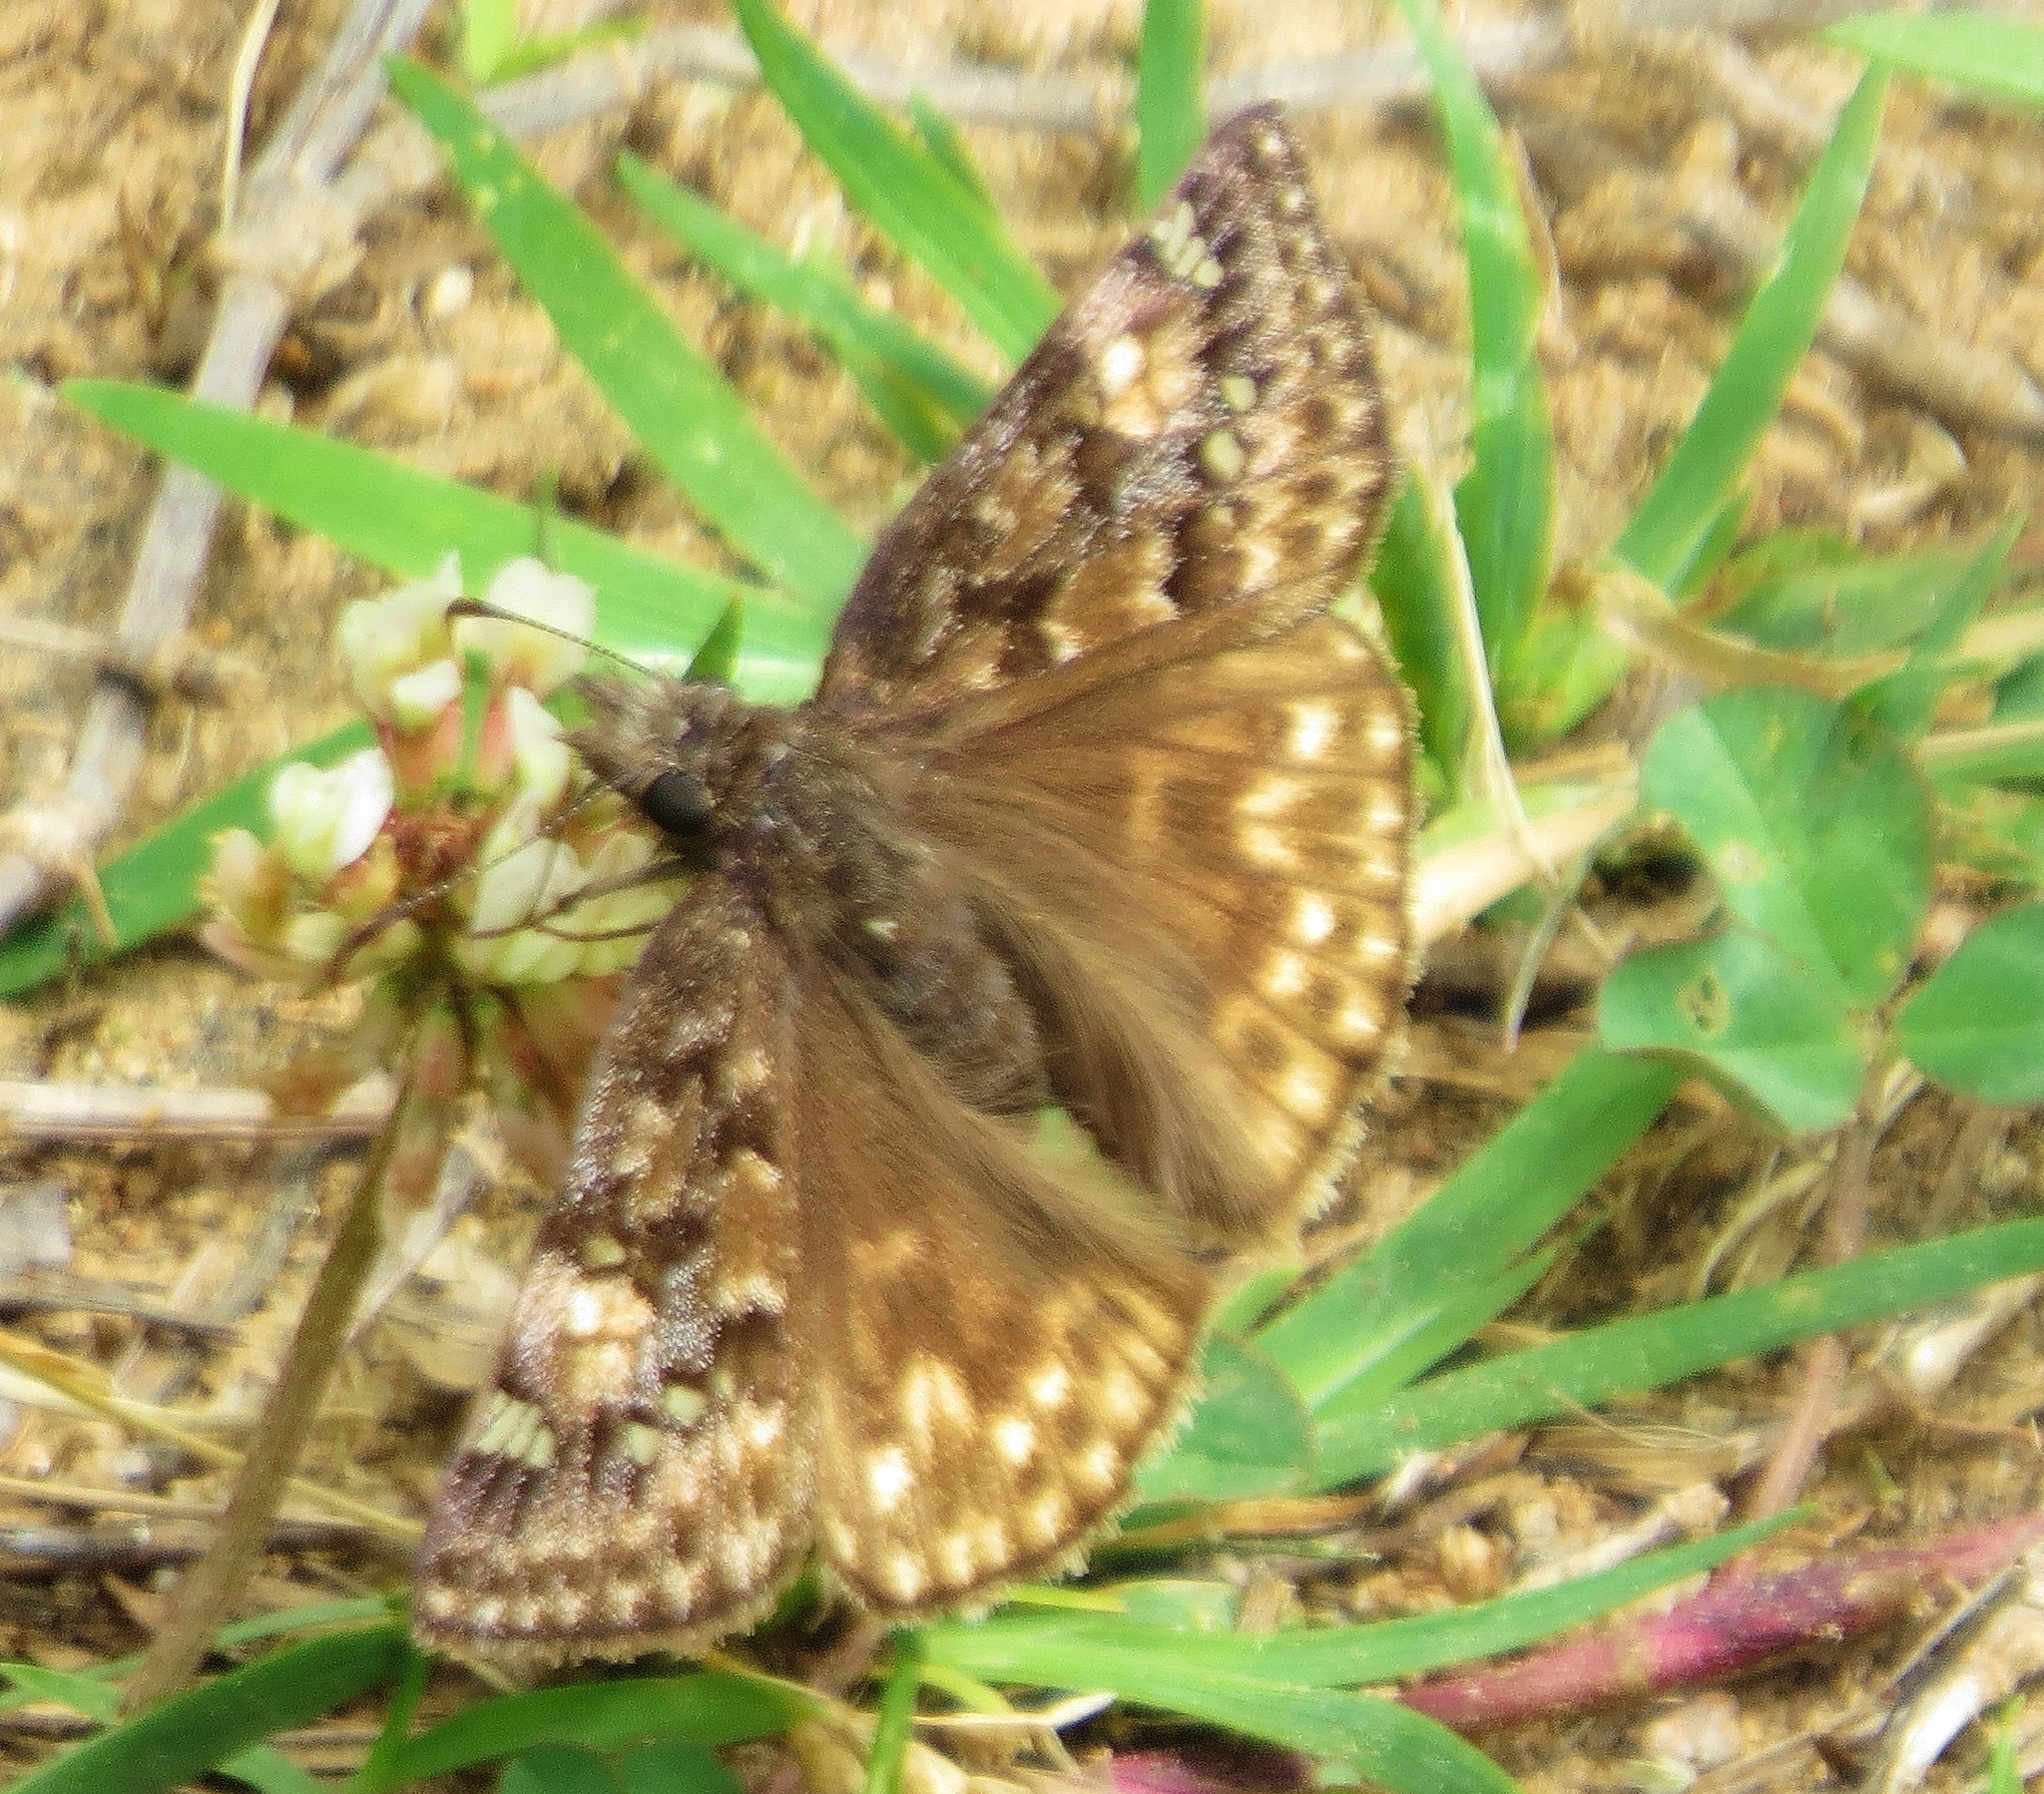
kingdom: Animalia
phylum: Arthropoda
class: Insecta
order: Lepidoptera
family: Hesperiidae
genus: Erynnis
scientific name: Erynnis juvenalis
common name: Juvenal's duskywing
